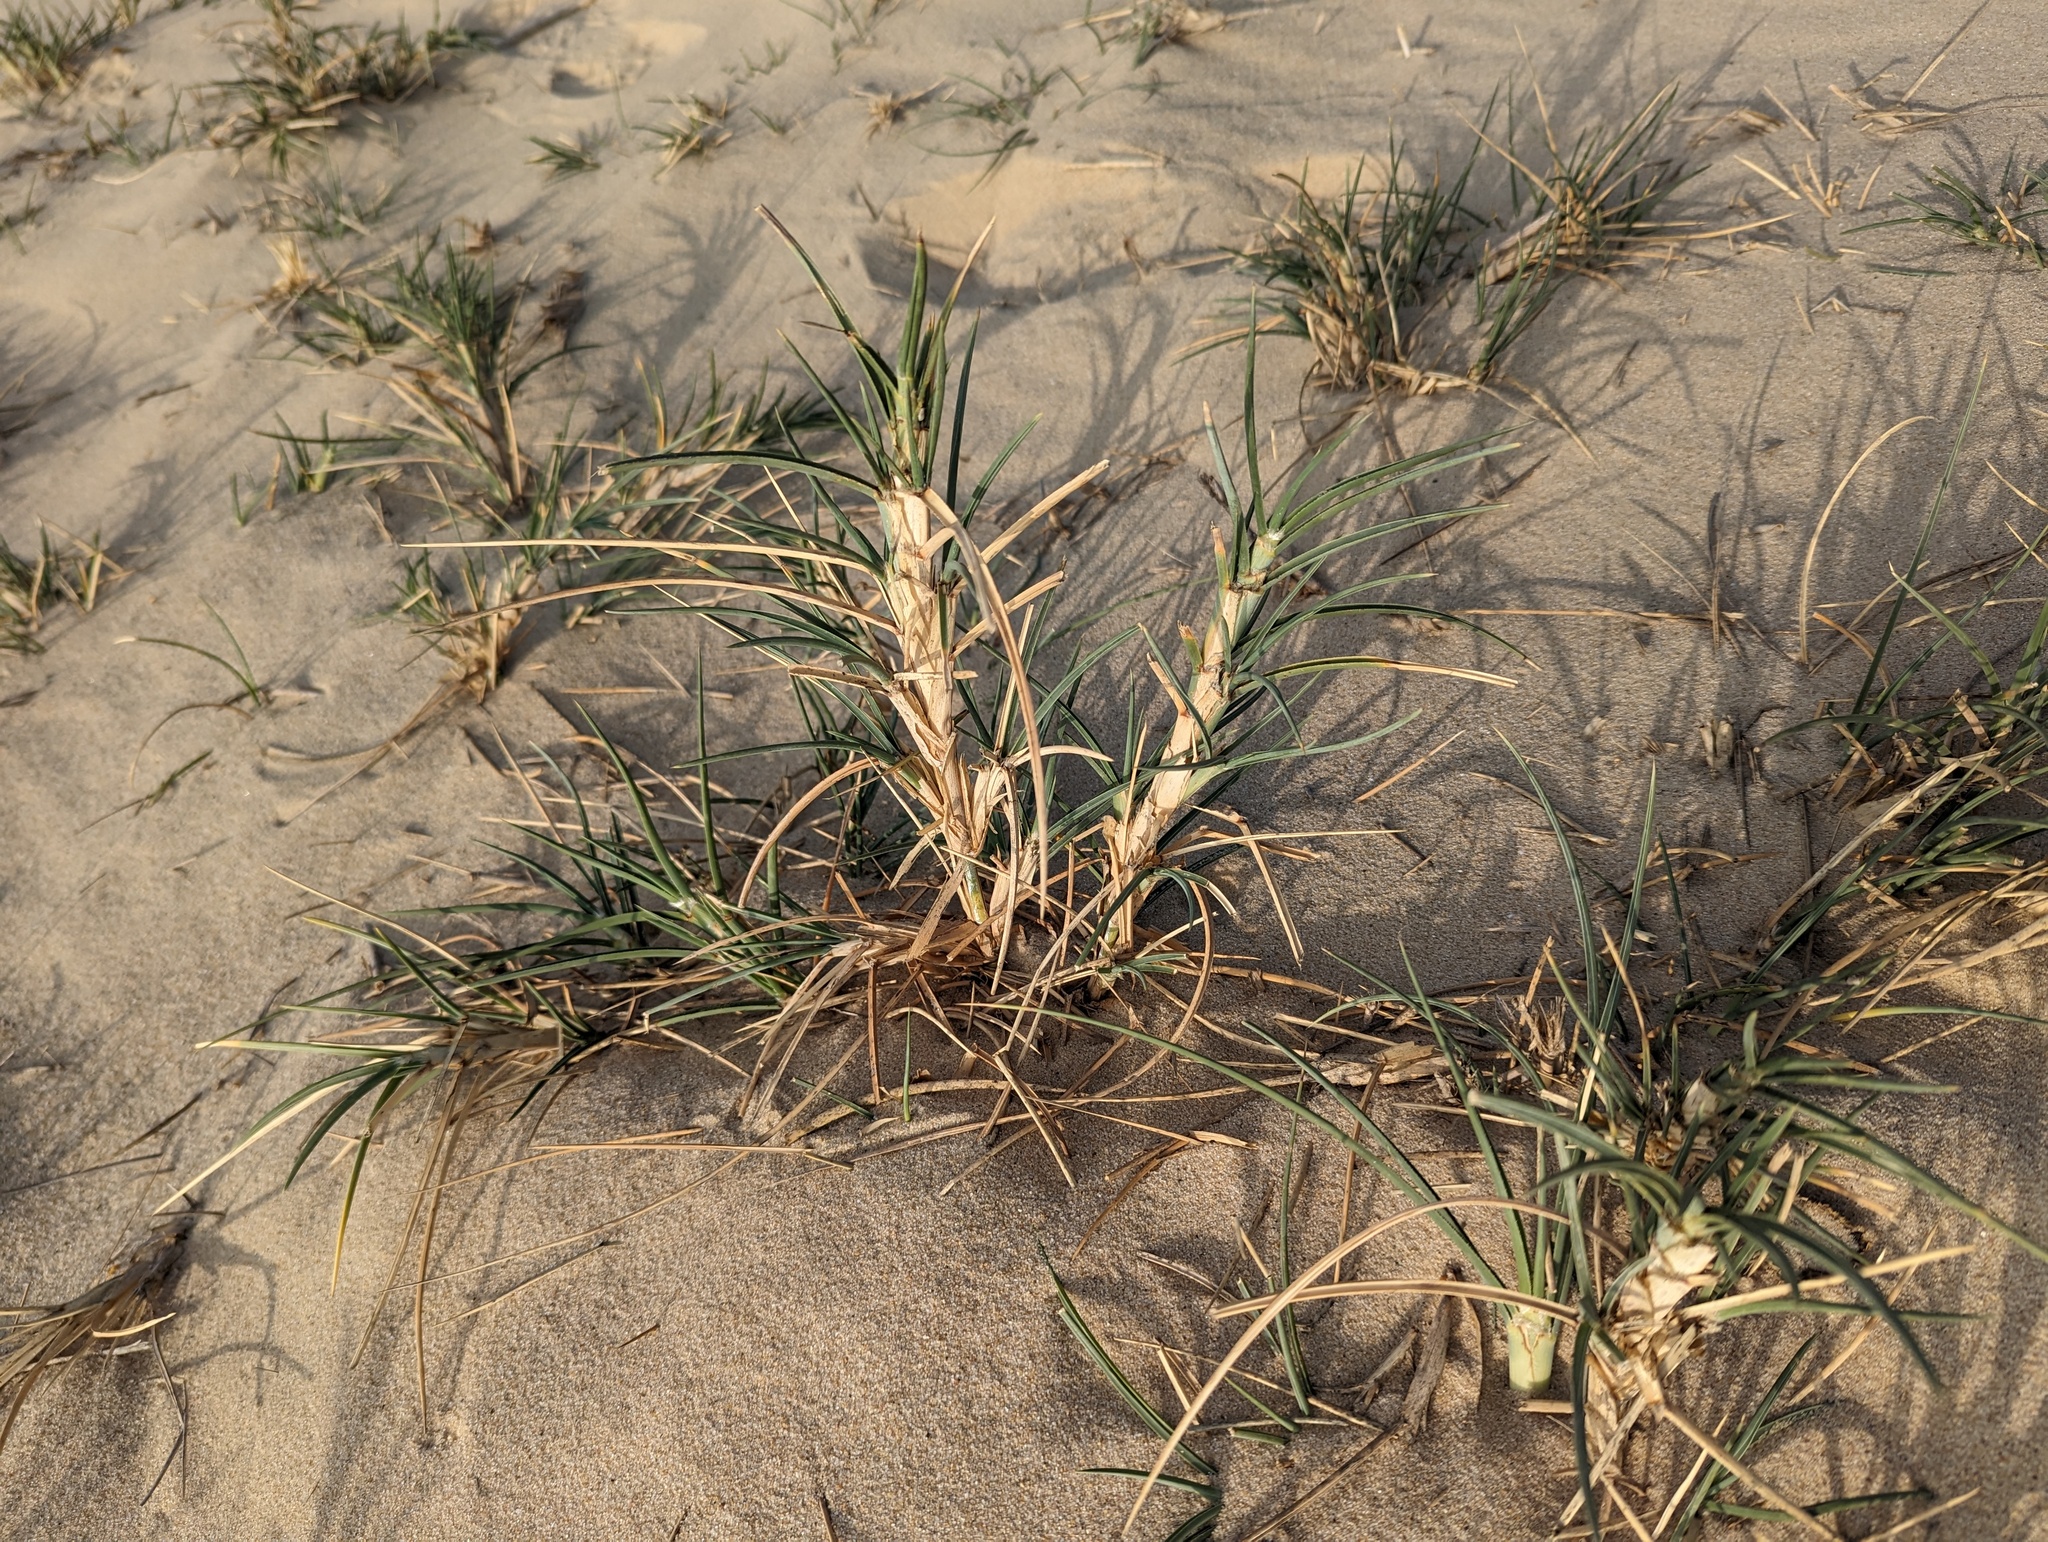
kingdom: Plantae
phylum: Tracheophyta
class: Liliopsida
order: Poales
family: Poaceae
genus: Spinifex
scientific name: Spinifex littoreus
